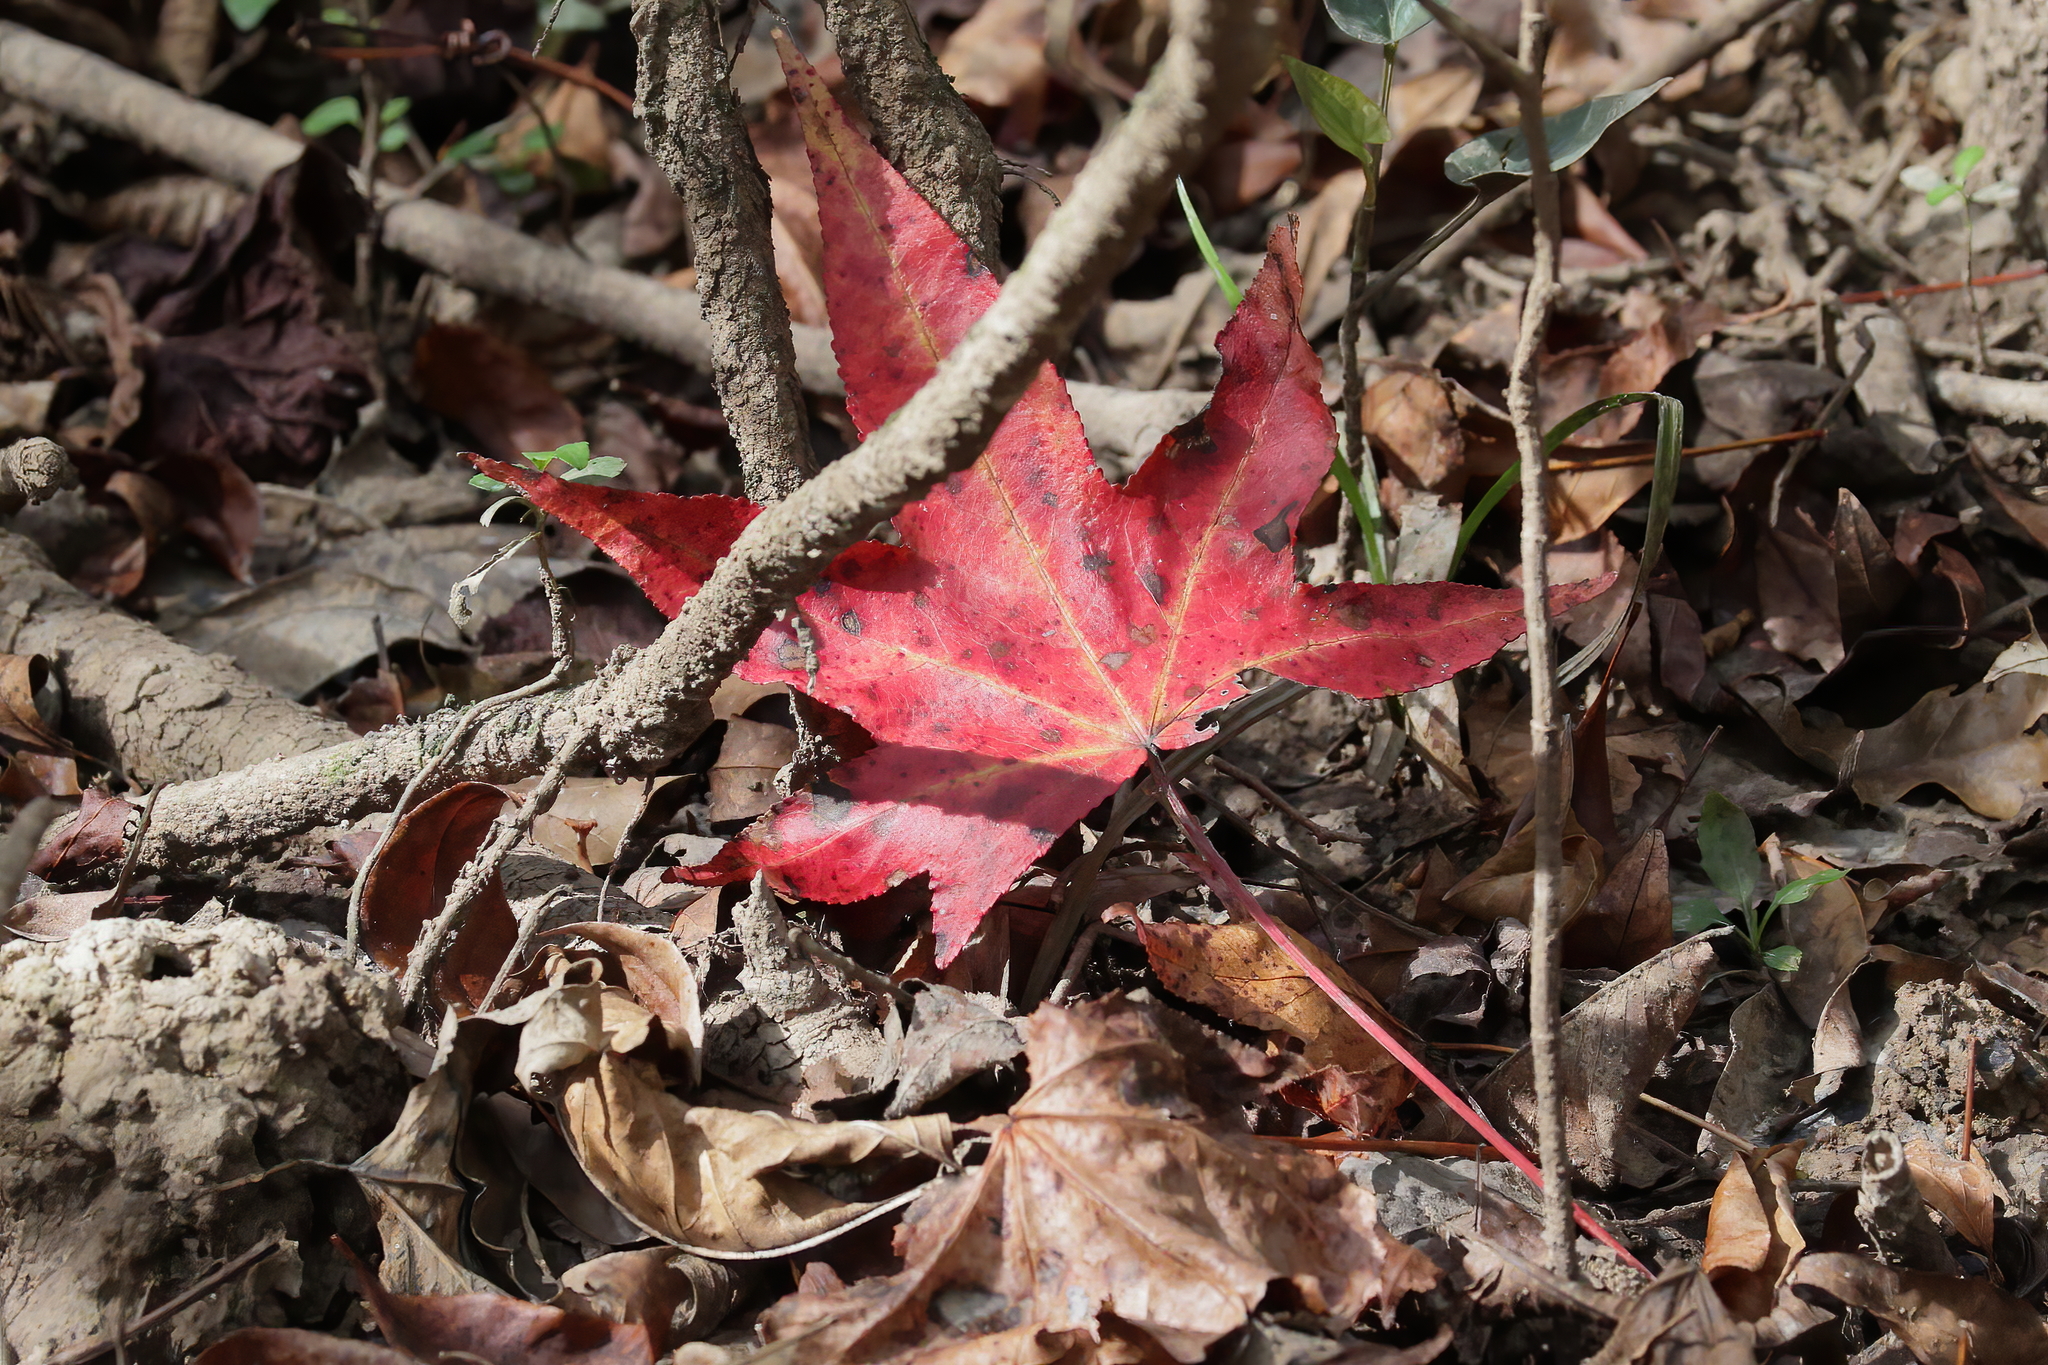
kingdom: Plantae
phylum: Tracheophyta
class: Magnoliopsida
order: Saxifragales
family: Altingiaceae
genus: Liquidambar
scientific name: Liquidambar styraciflua
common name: Sweet gum
